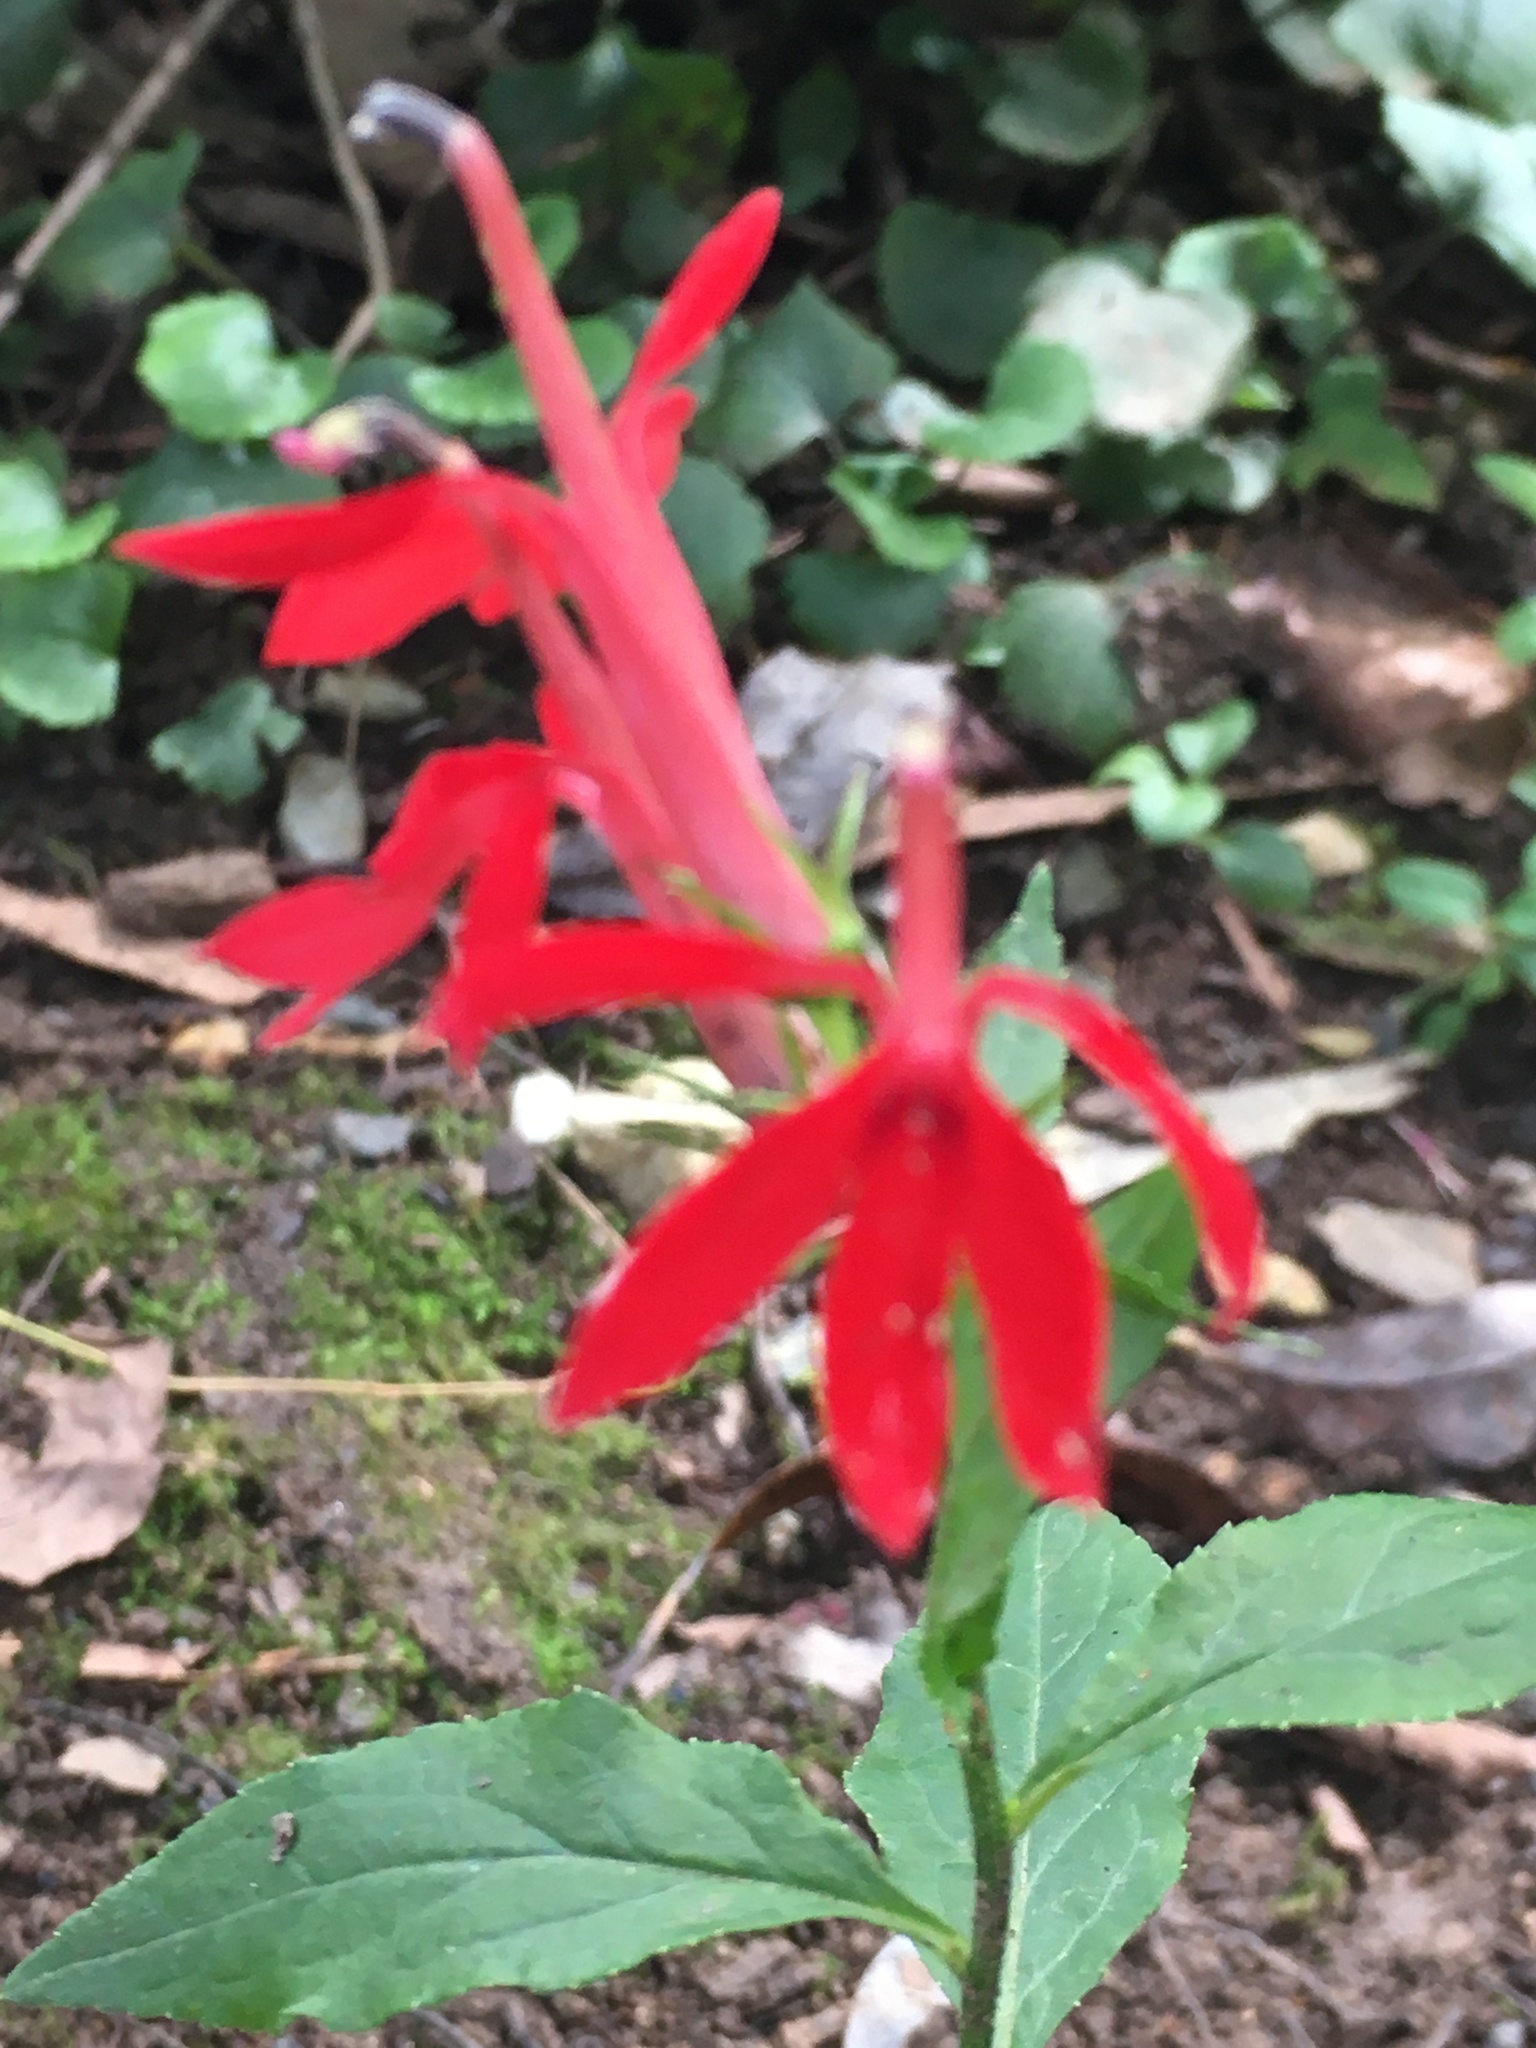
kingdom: Plantae
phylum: Tracheophyta
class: Magnoliopsida
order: Asterales
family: Campanulaceae
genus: Lobelia
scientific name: Lobelia cardinalis
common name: Cardinal flower
